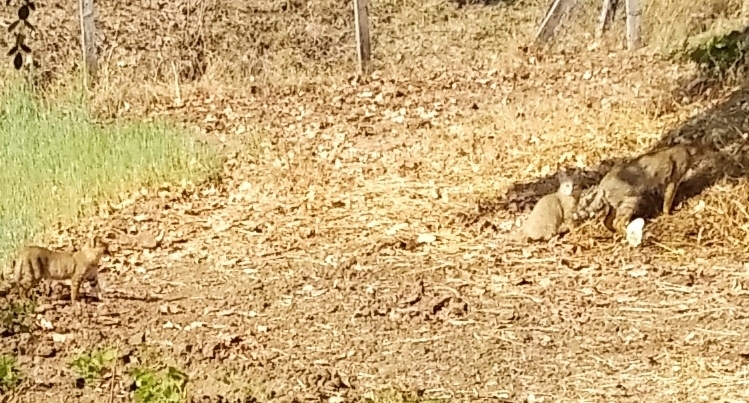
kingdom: Animalia
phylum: Chordata
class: Mammalia
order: Carnivora
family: Felidae
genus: Felis
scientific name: Felis catus
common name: Domestic cat
